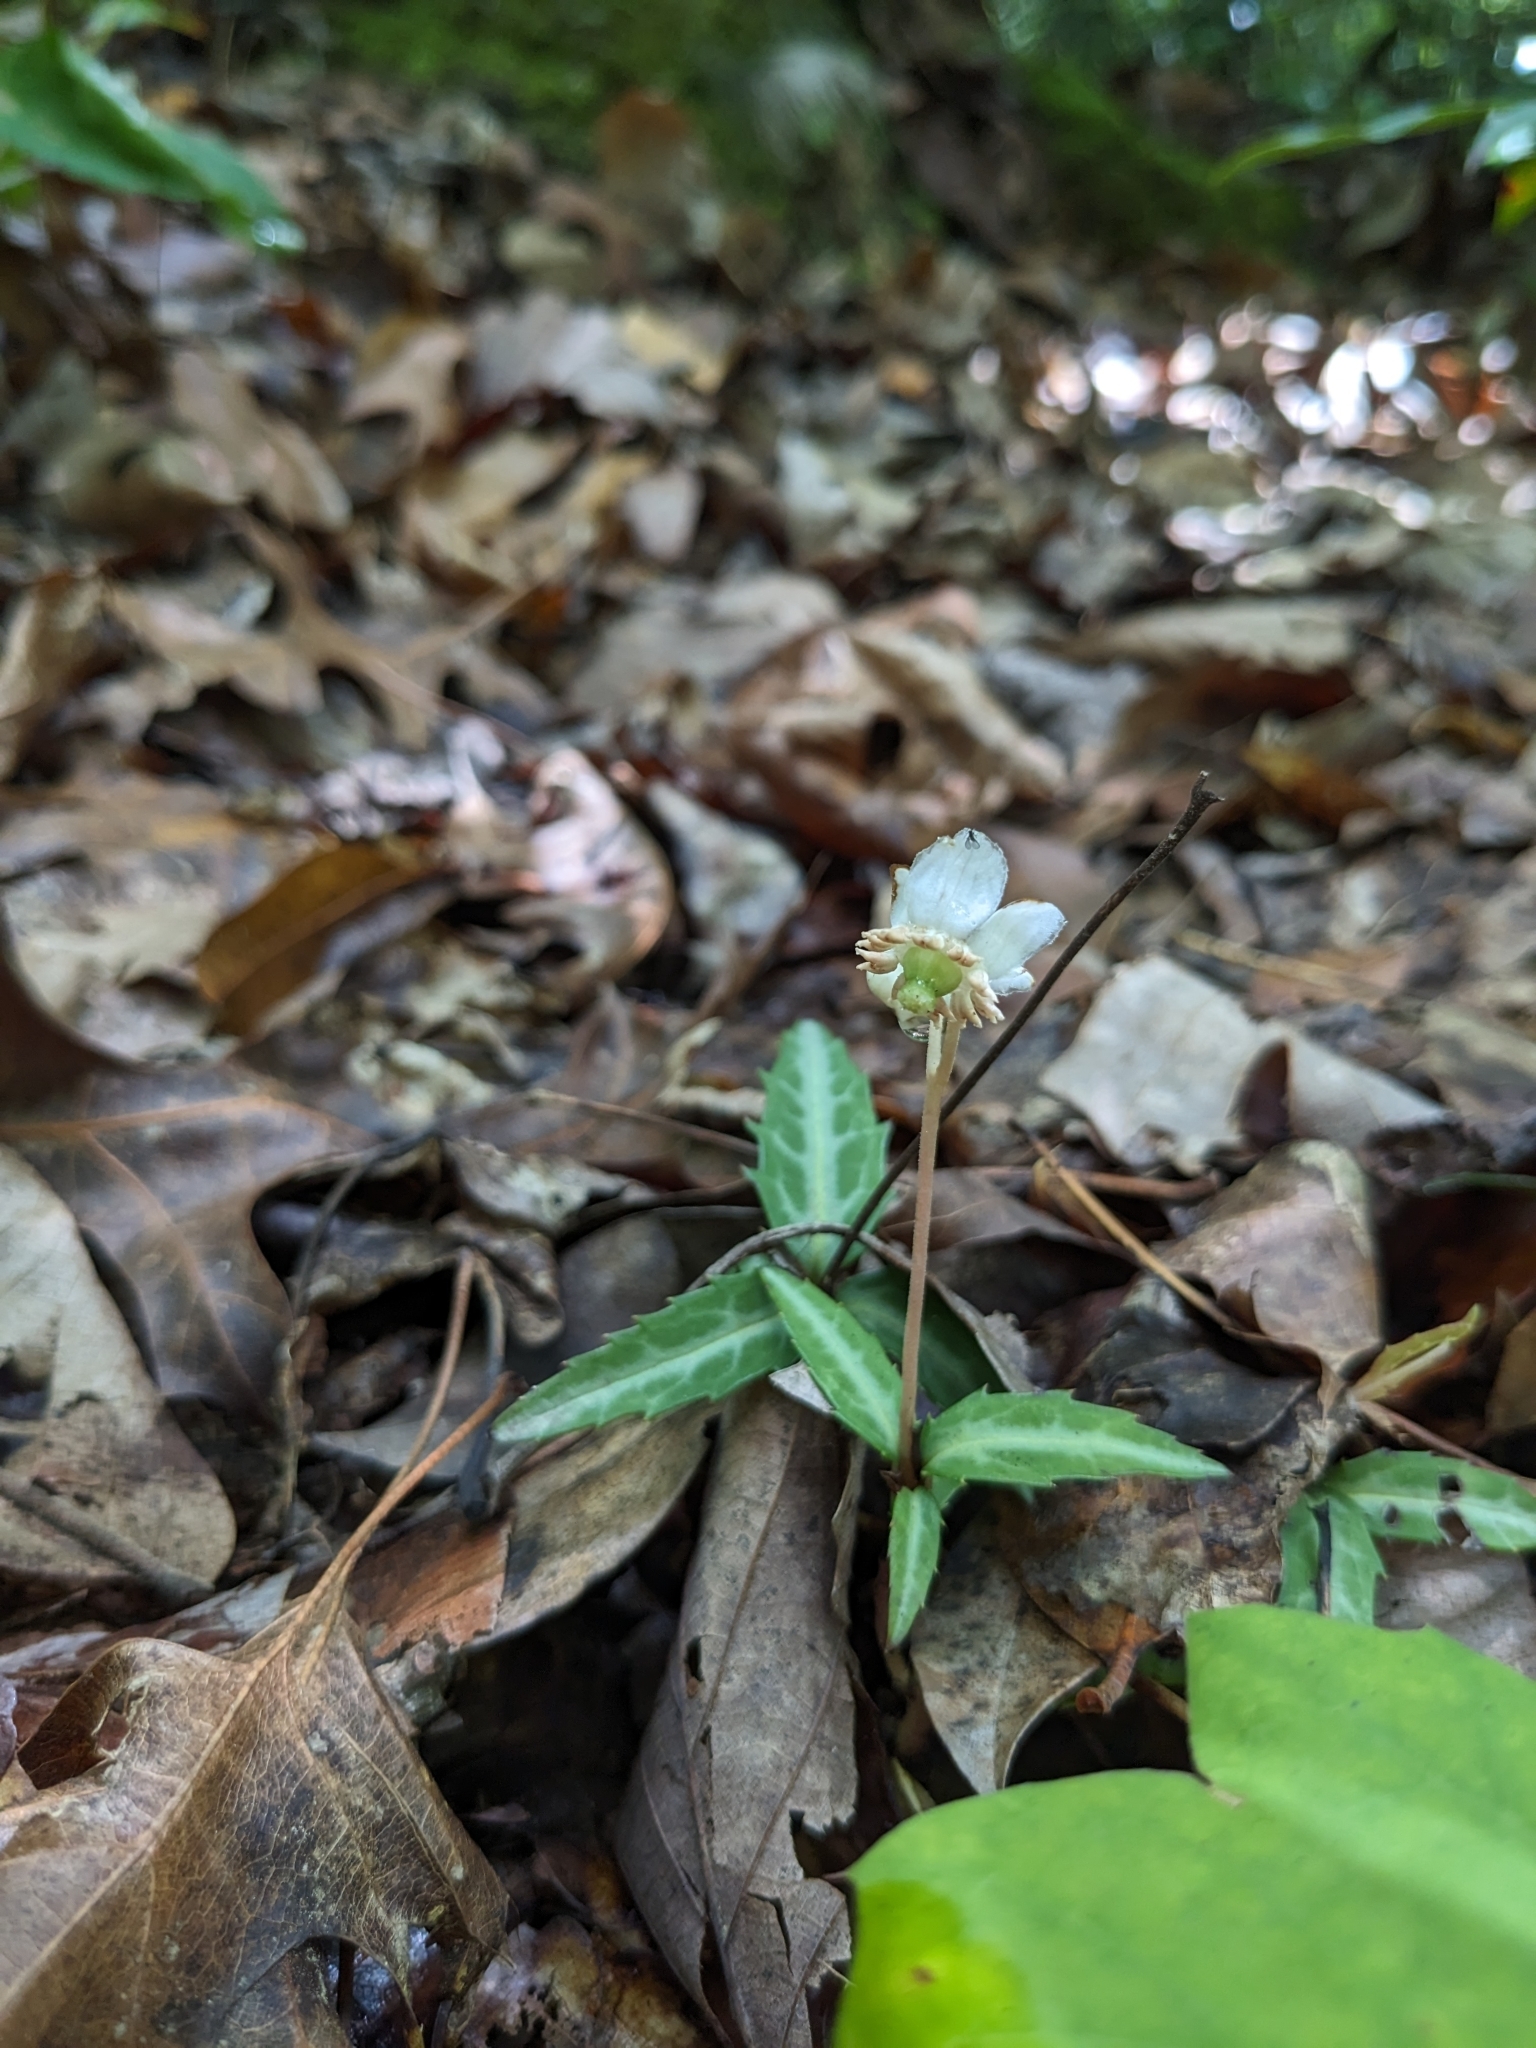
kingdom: Plantae
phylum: Tracheophyta
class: Magnoliopsida
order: Ericales
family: Ericaceae
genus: Chimaphila
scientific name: Chimaphila maculata
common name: Spotted pipsissewa
